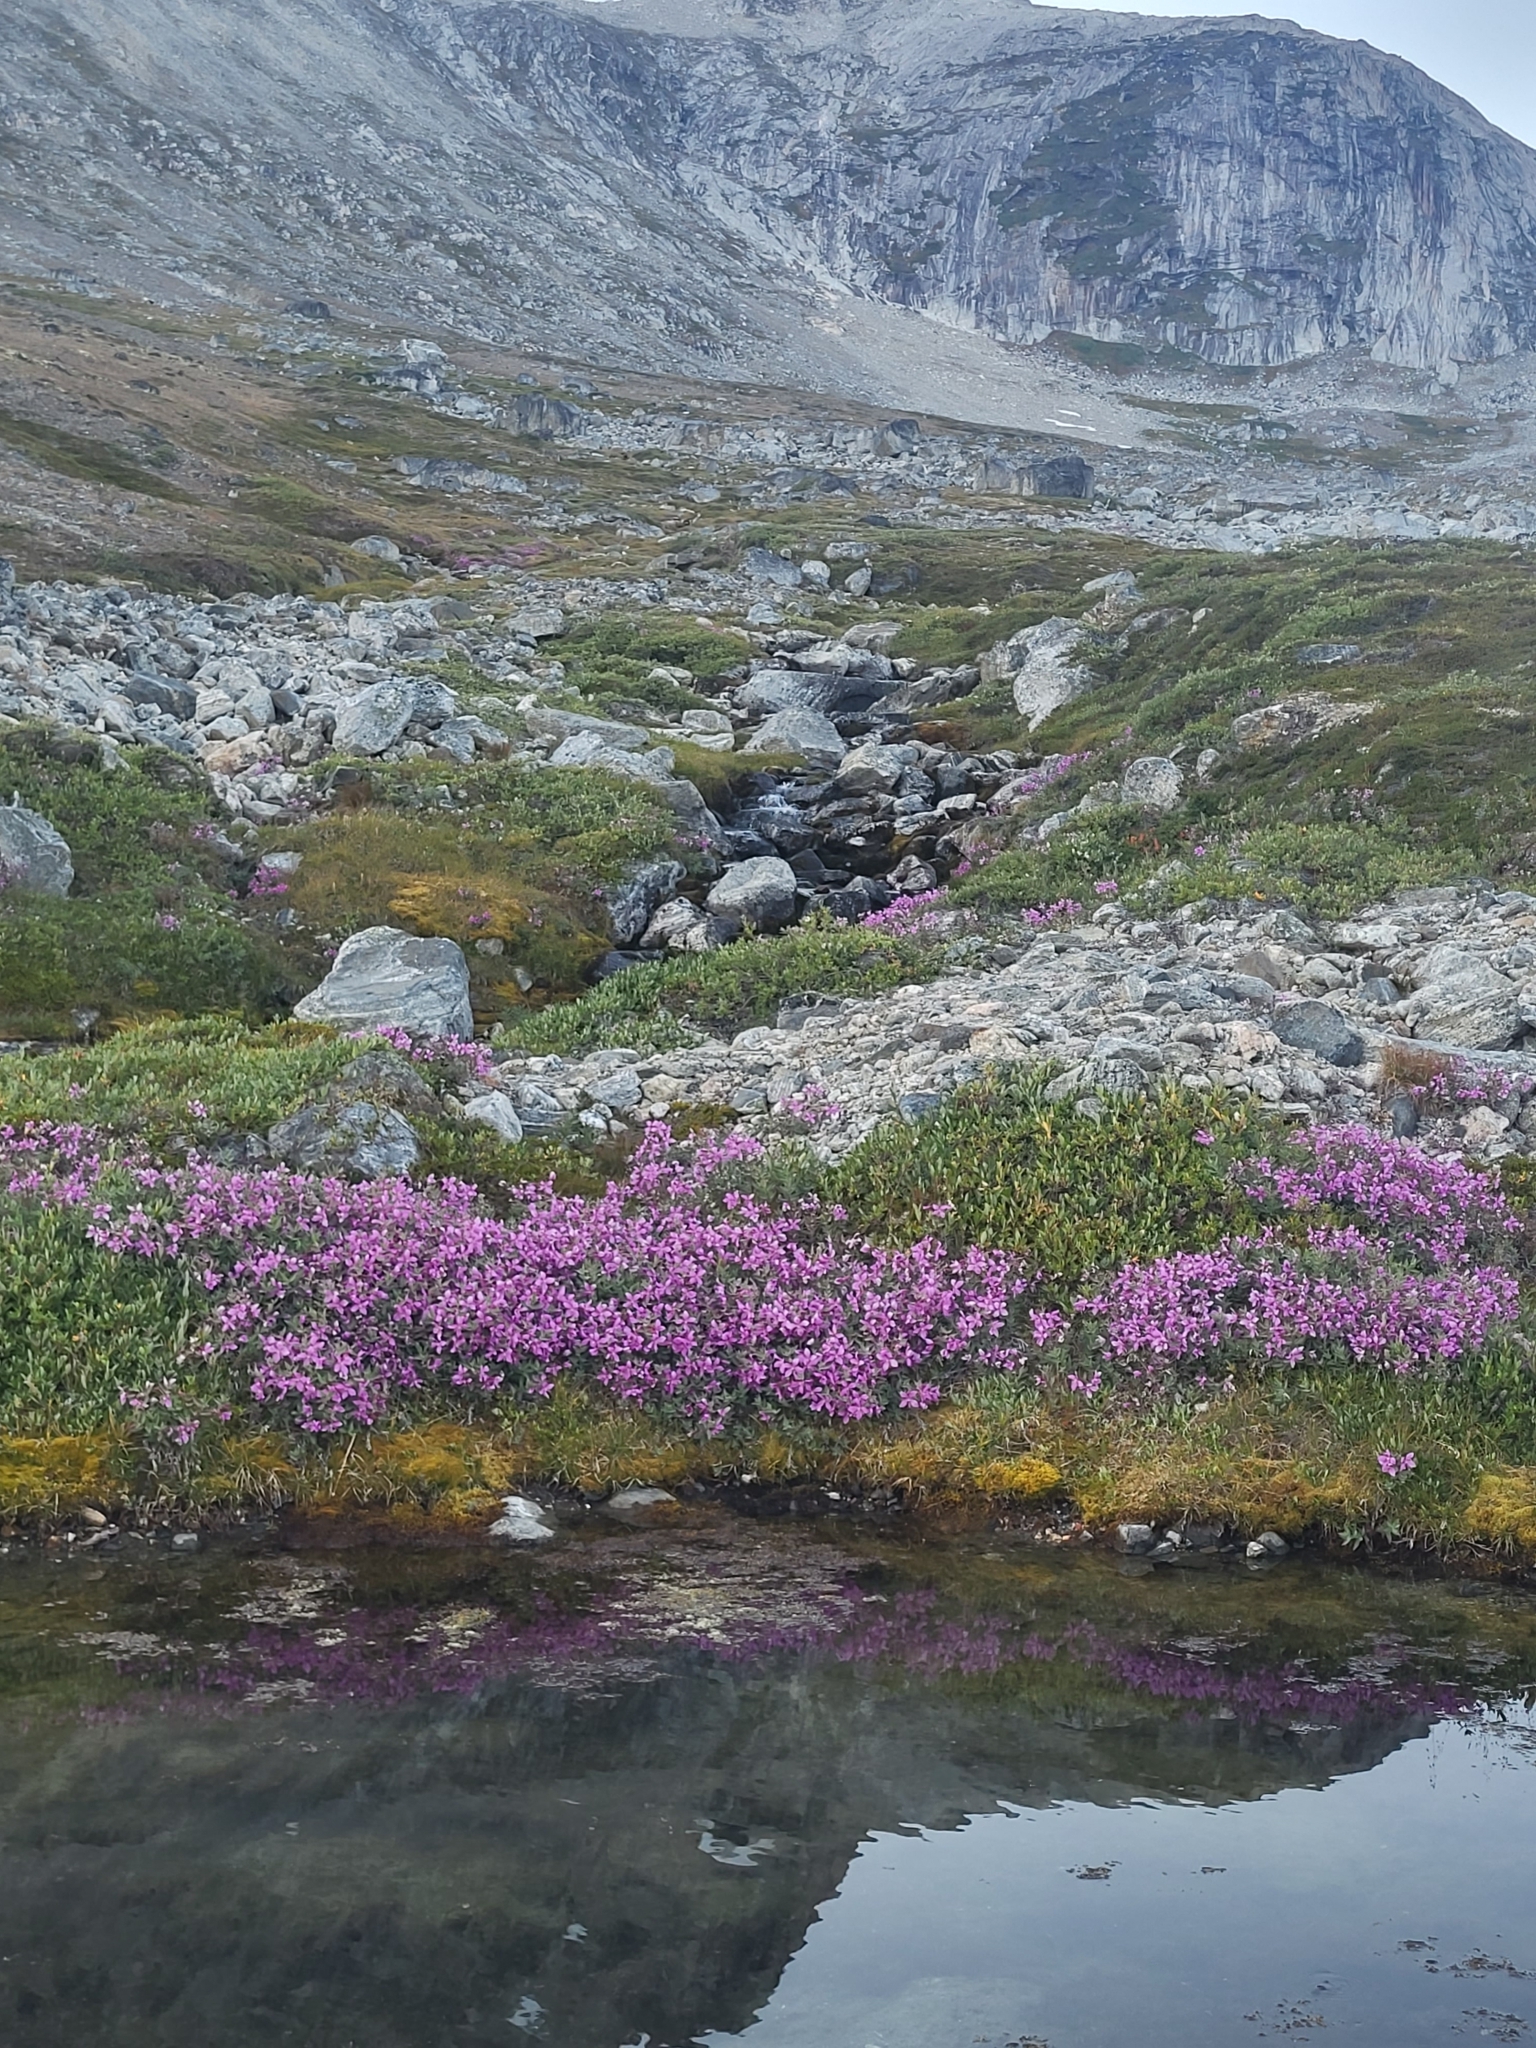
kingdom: Plantae
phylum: Tracheophyta
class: Magnoliopsida
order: Myrtales
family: Onagraceae
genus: Chamaenerion
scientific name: Chamaenerion latifolium
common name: Dwarf fireweed
